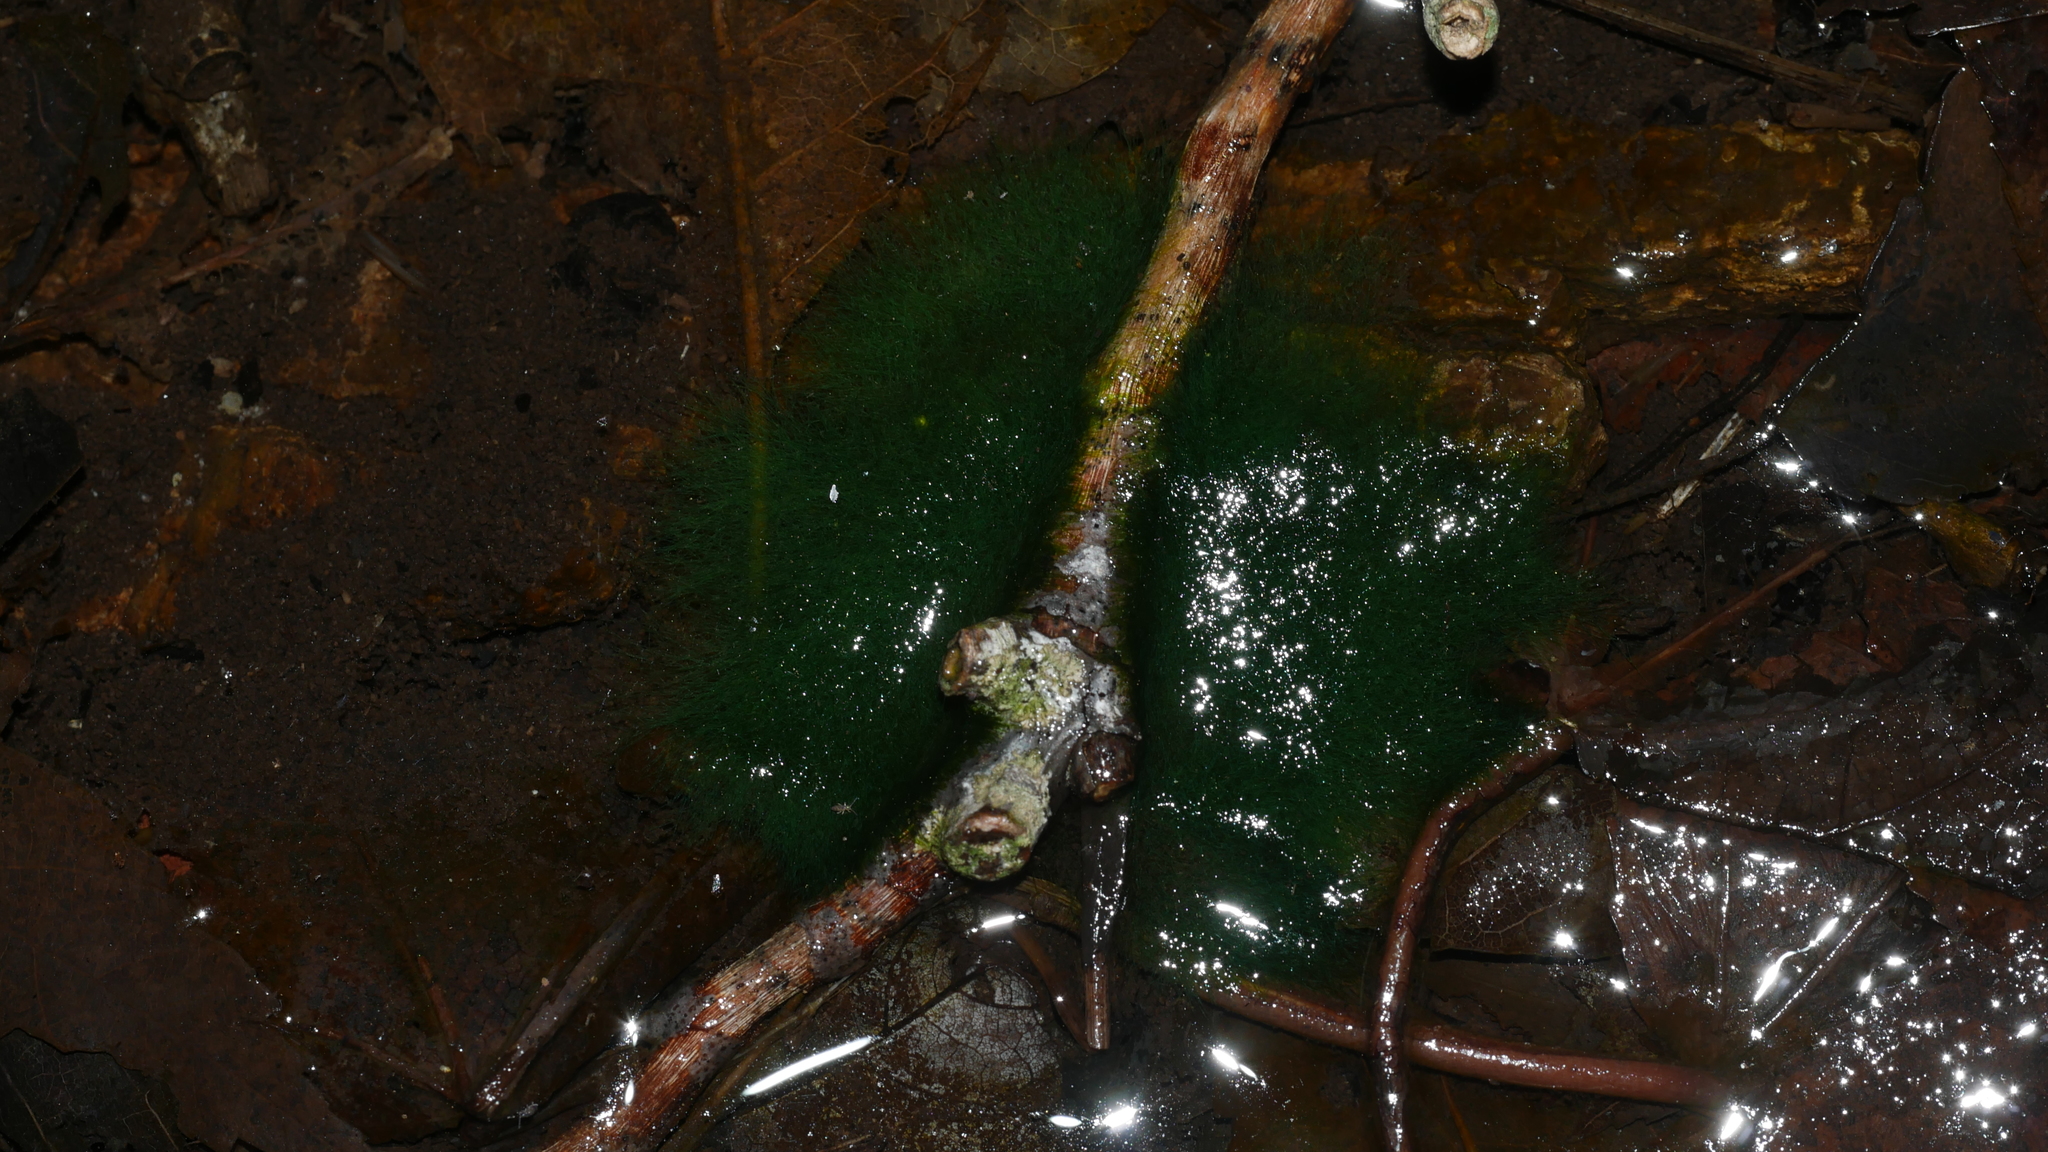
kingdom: Chromista
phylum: Ochrophyta
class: Xanthophyceae
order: Vaucheriales
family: Vaucheriaceae
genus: Vaucheria
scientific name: Vaucheria
